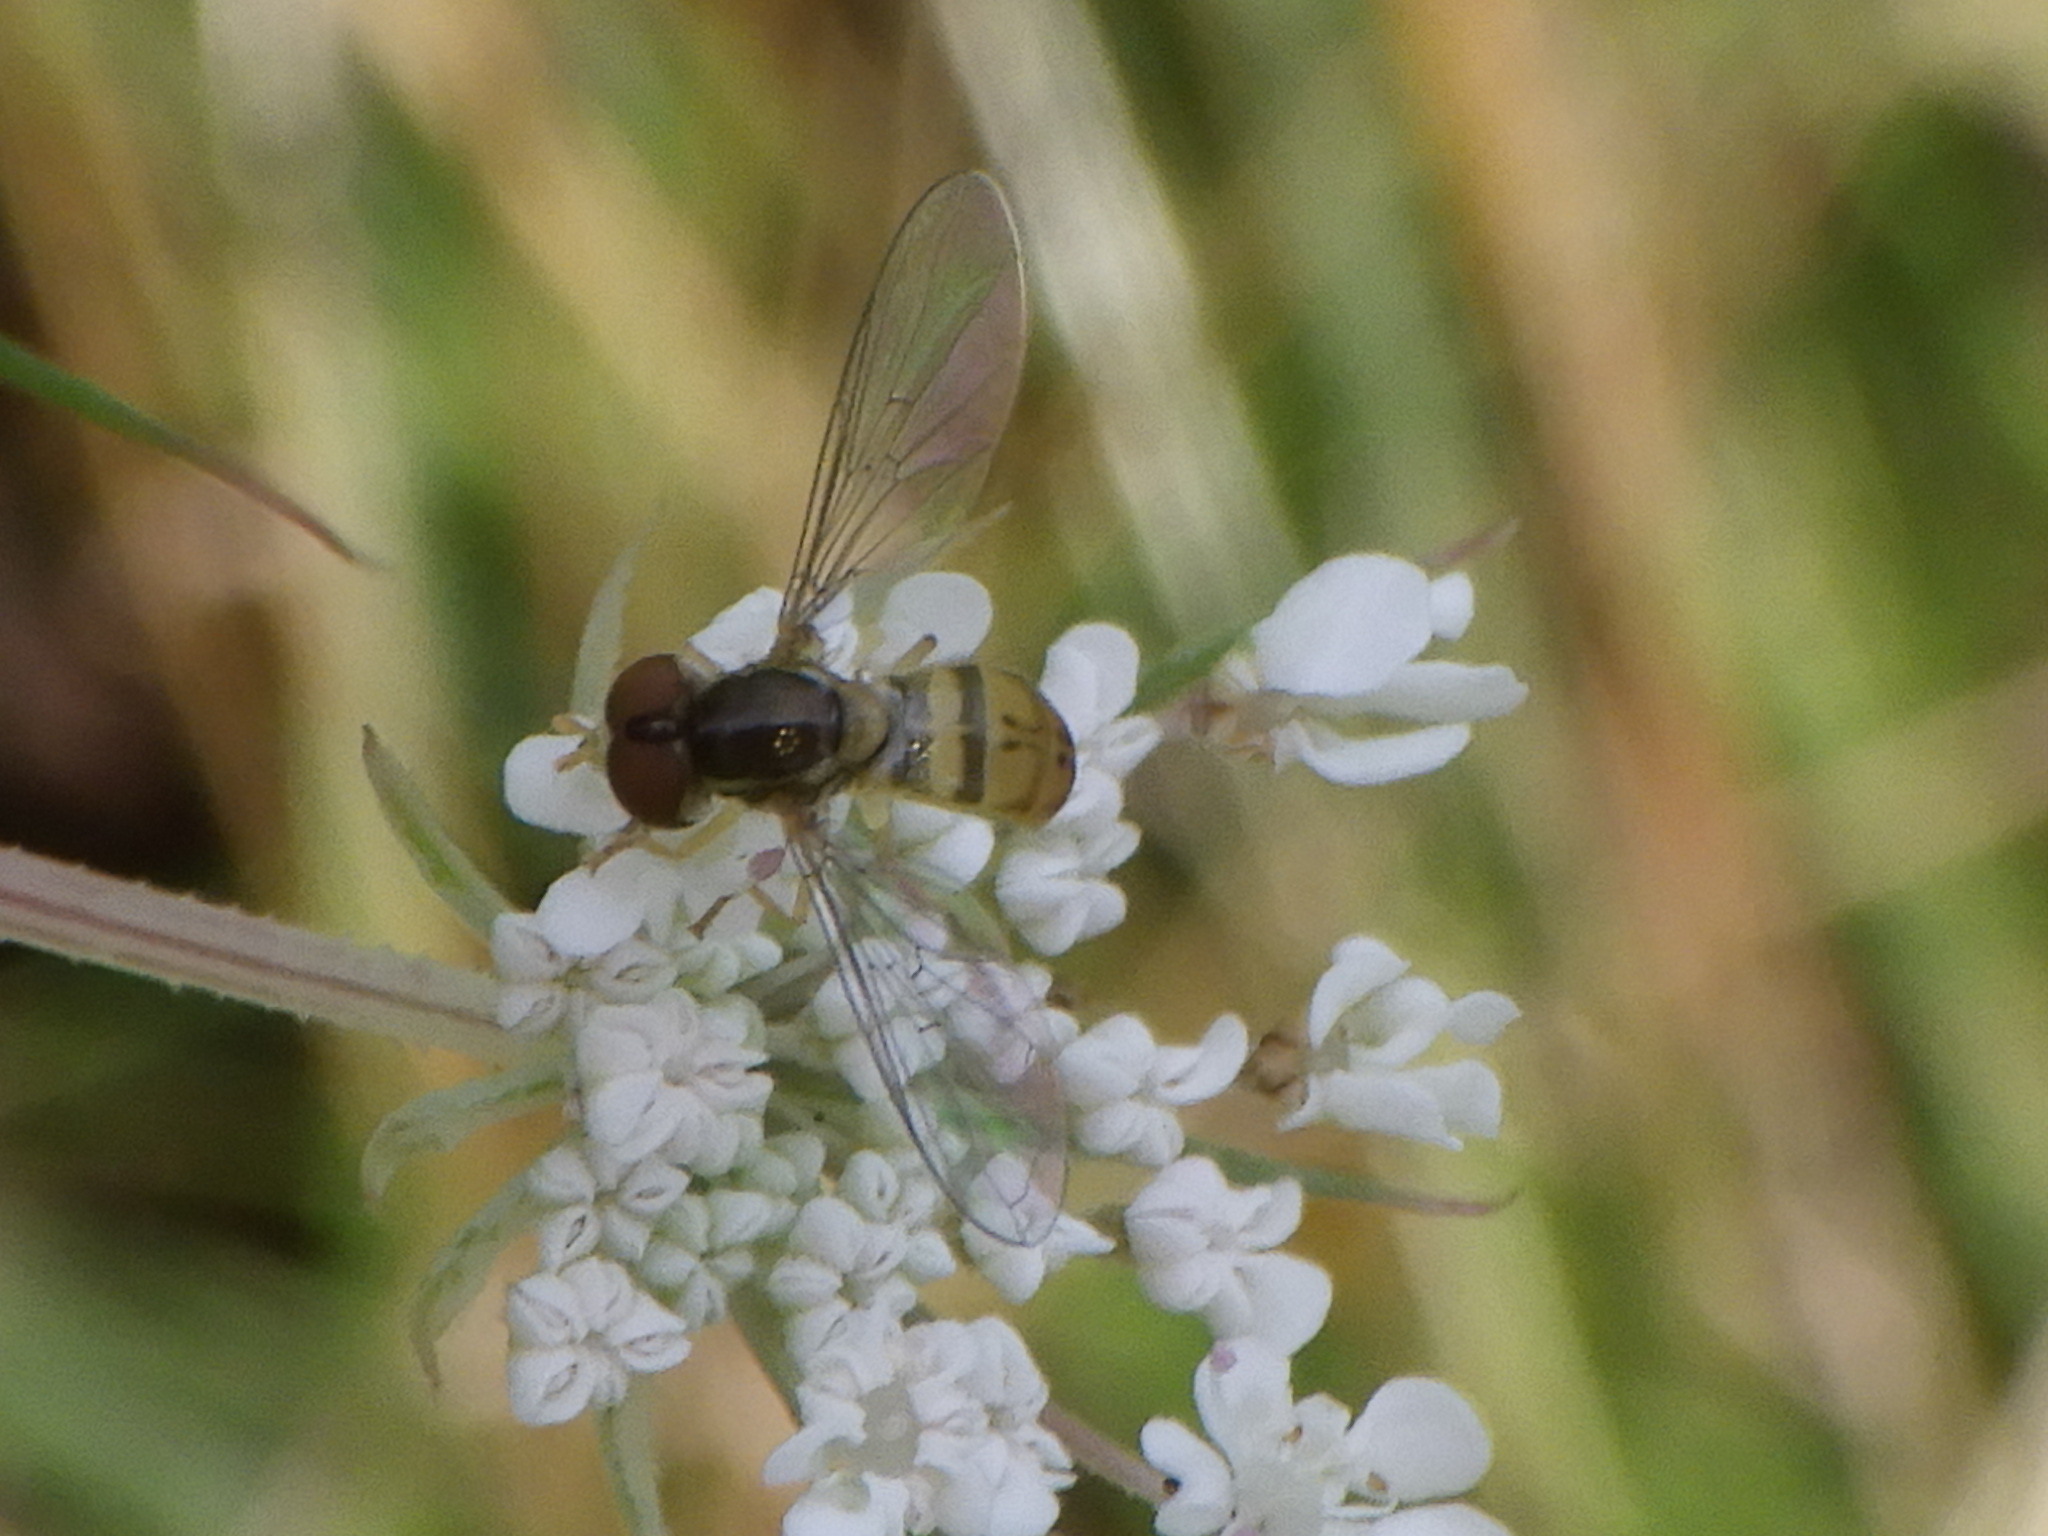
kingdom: Animalia
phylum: Arthropoda
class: Insecta
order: Diptera
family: Syrphidae
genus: Toxomerus
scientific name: Toxomerus marginatus
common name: Syrphid fly
